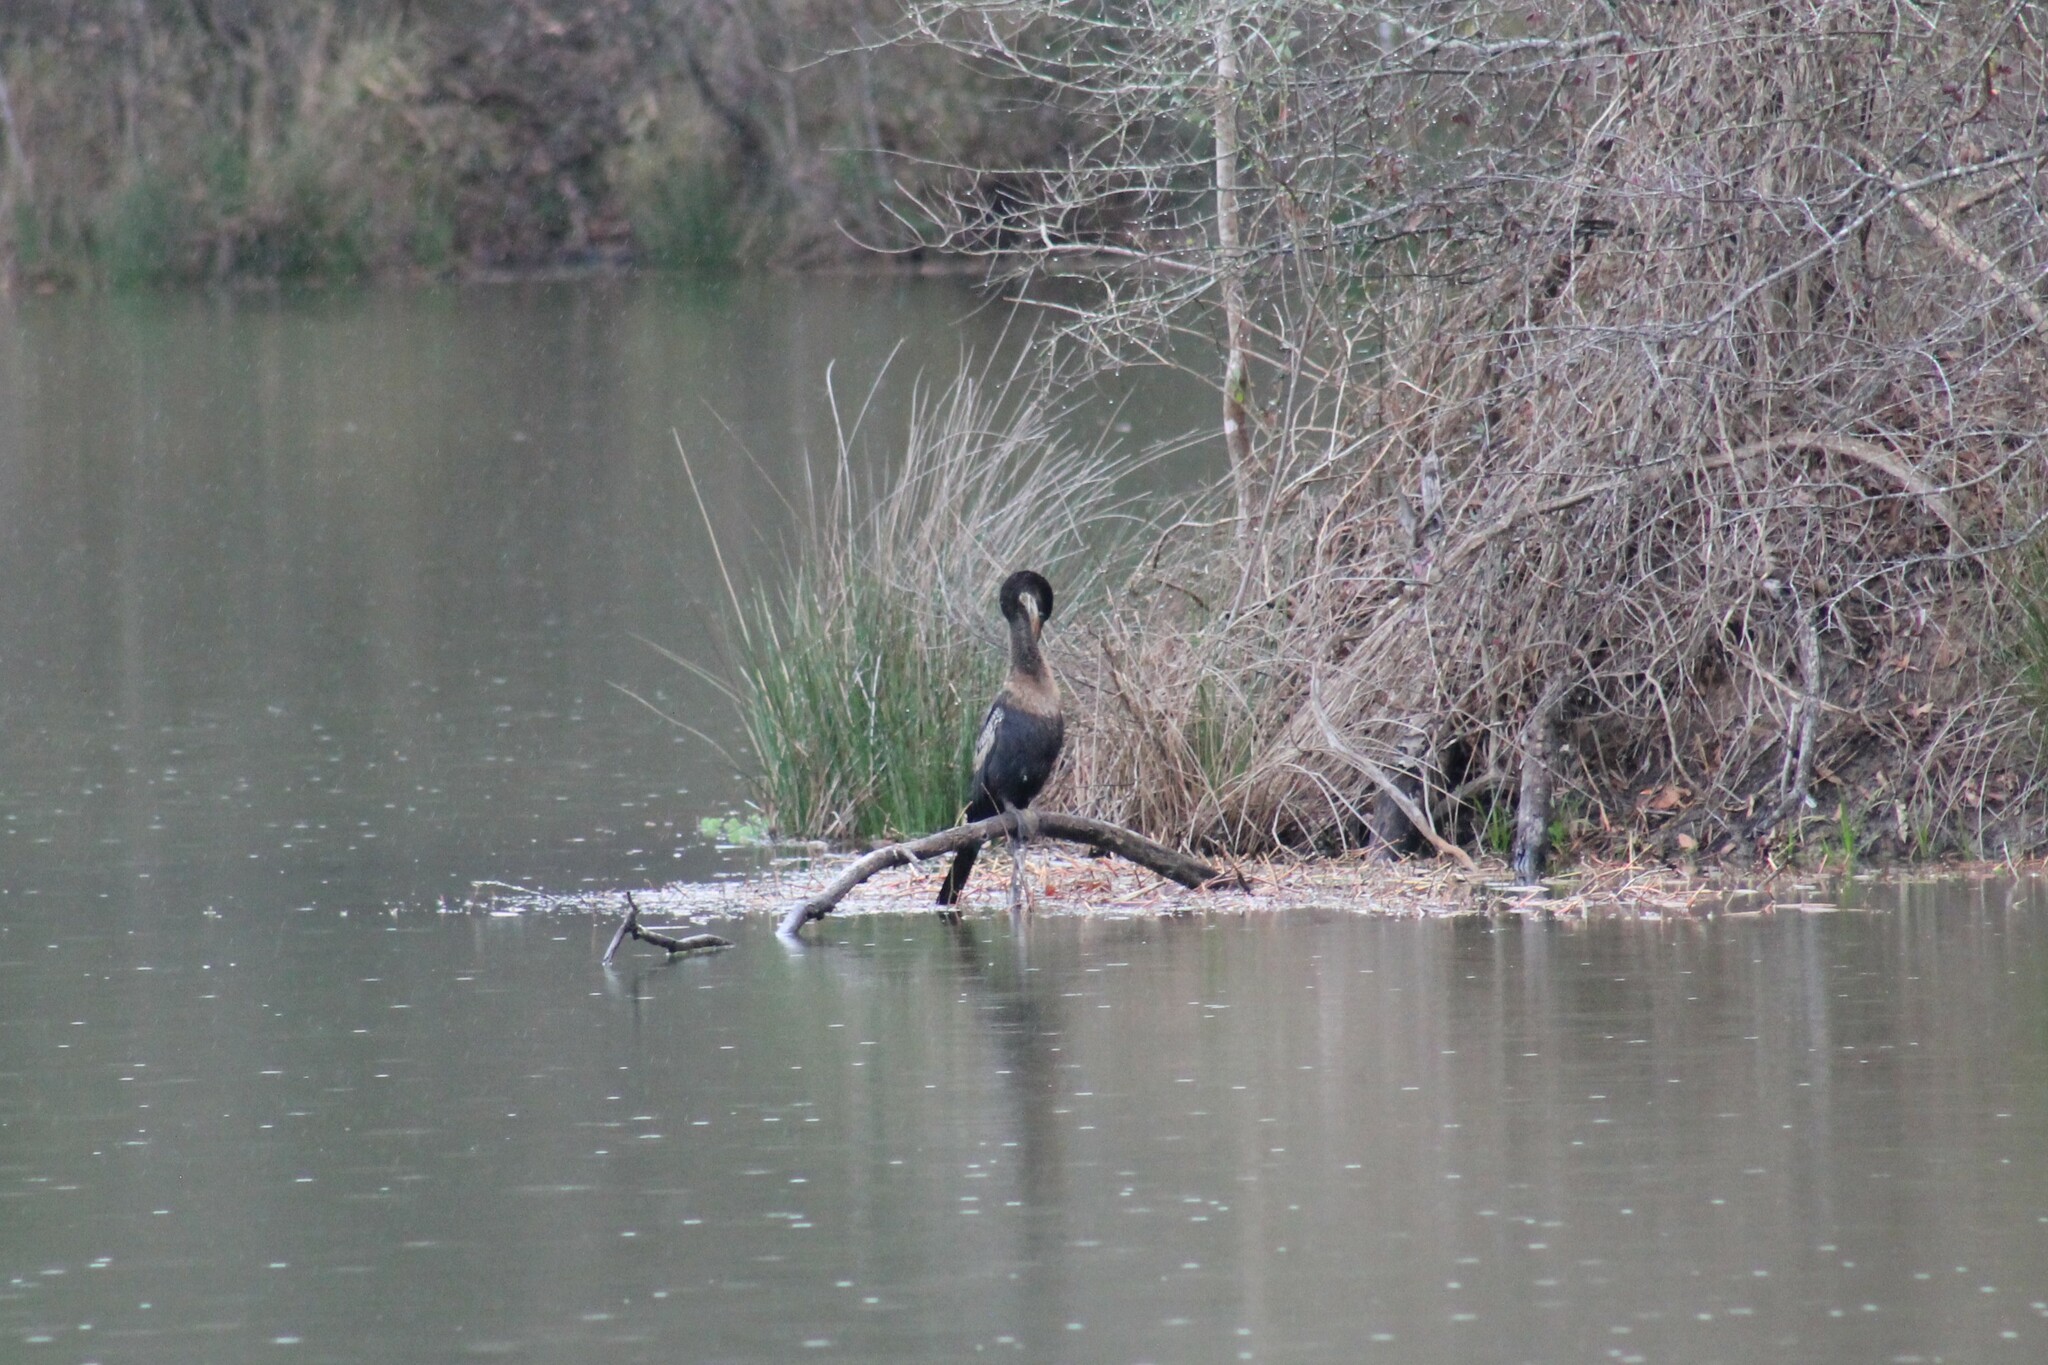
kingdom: Animalia
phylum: Chordata
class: Aves
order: Suliformes
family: Anhingidae
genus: Anhinga
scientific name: Anhinga anhinga
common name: Anhinga
